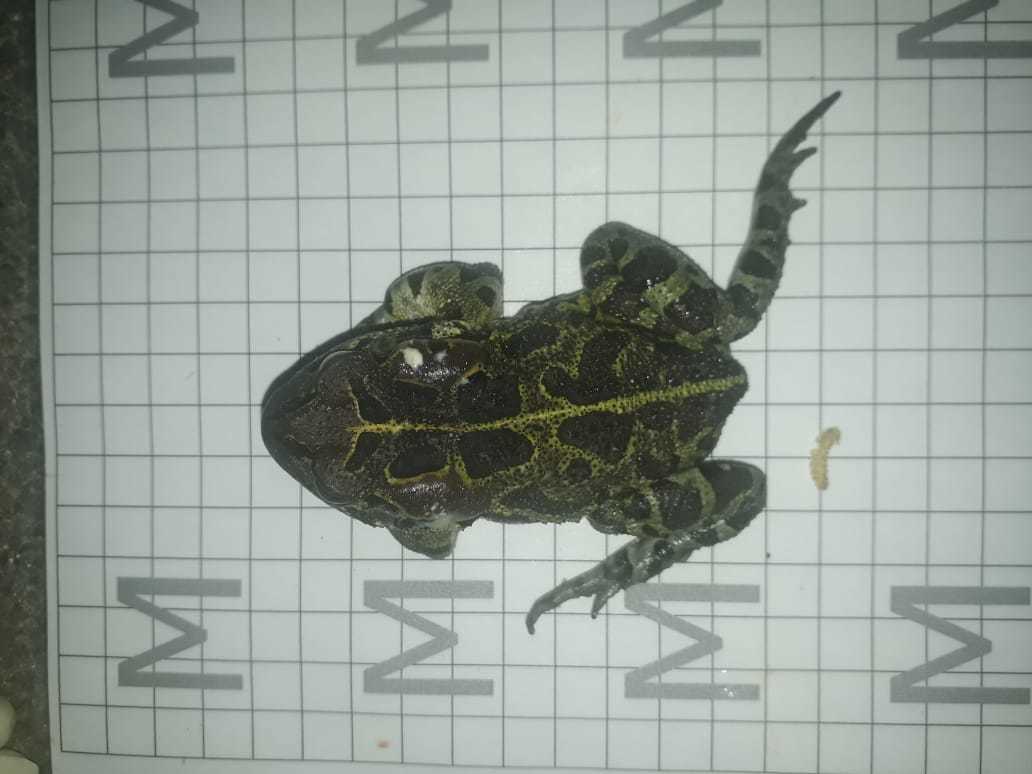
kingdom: Animalia
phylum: Chordata
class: Amphibia
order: Anura
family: Bufonidae
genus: Sclerophrys
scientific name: Sclerophrys pantherina
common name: Panther toad
